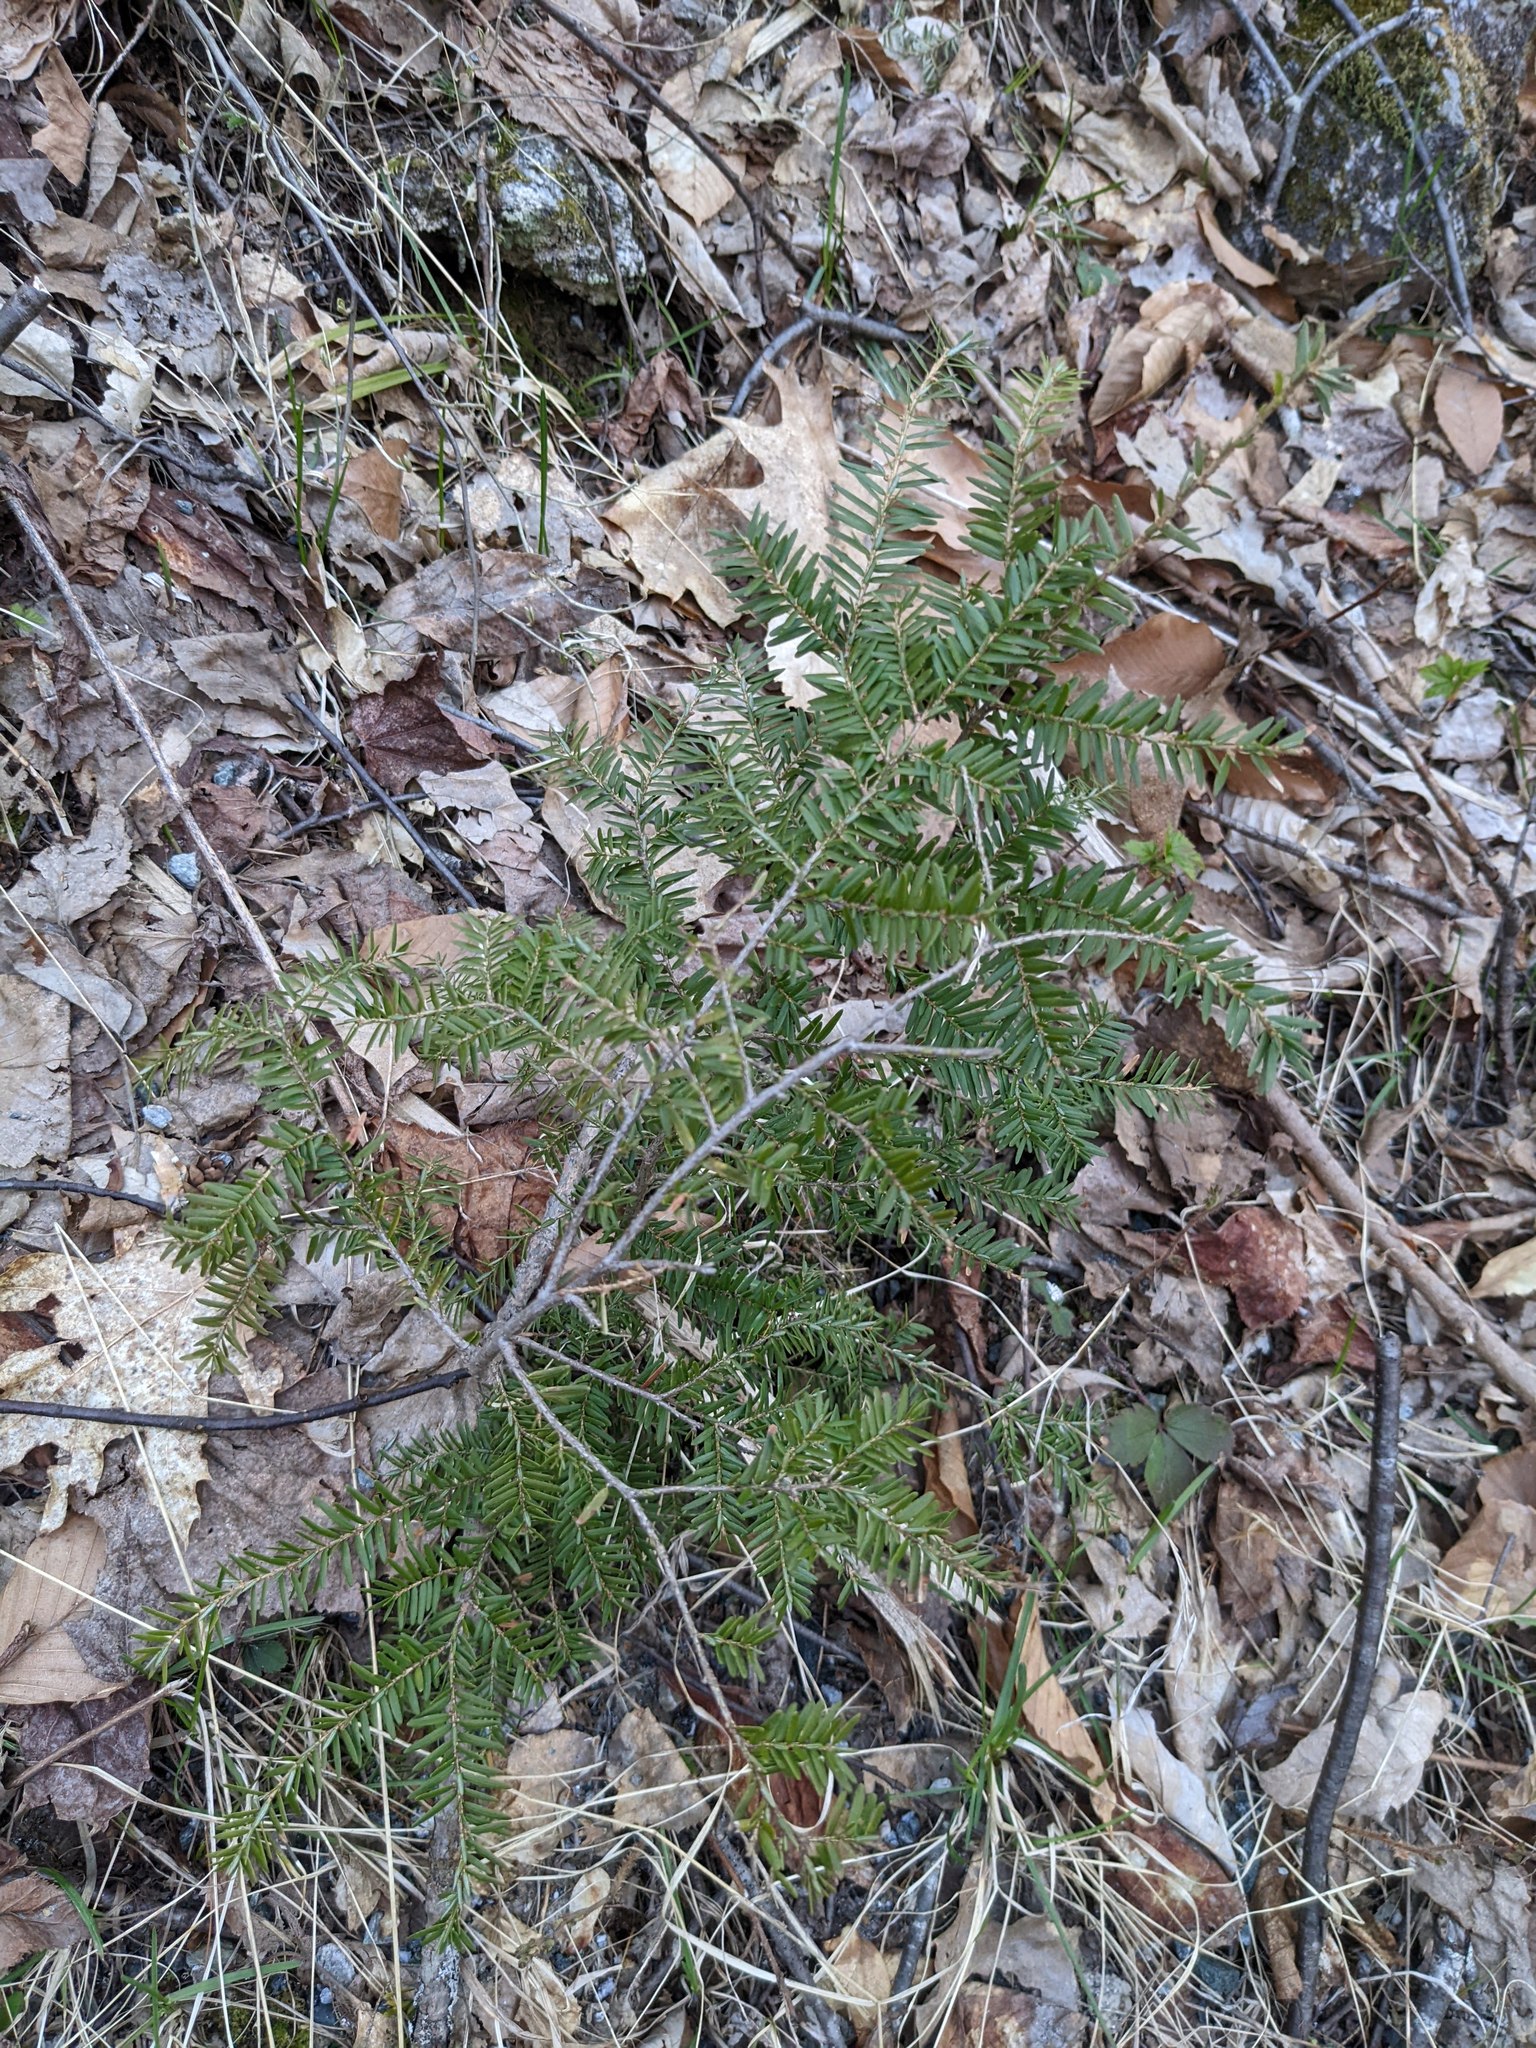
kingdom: Plantae
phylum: Tracheophyta
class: Pinopsida
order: Pinales
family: Pinaceae
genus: Tsuga
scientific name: Tsuga canadensis
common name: Eastern hemlock
